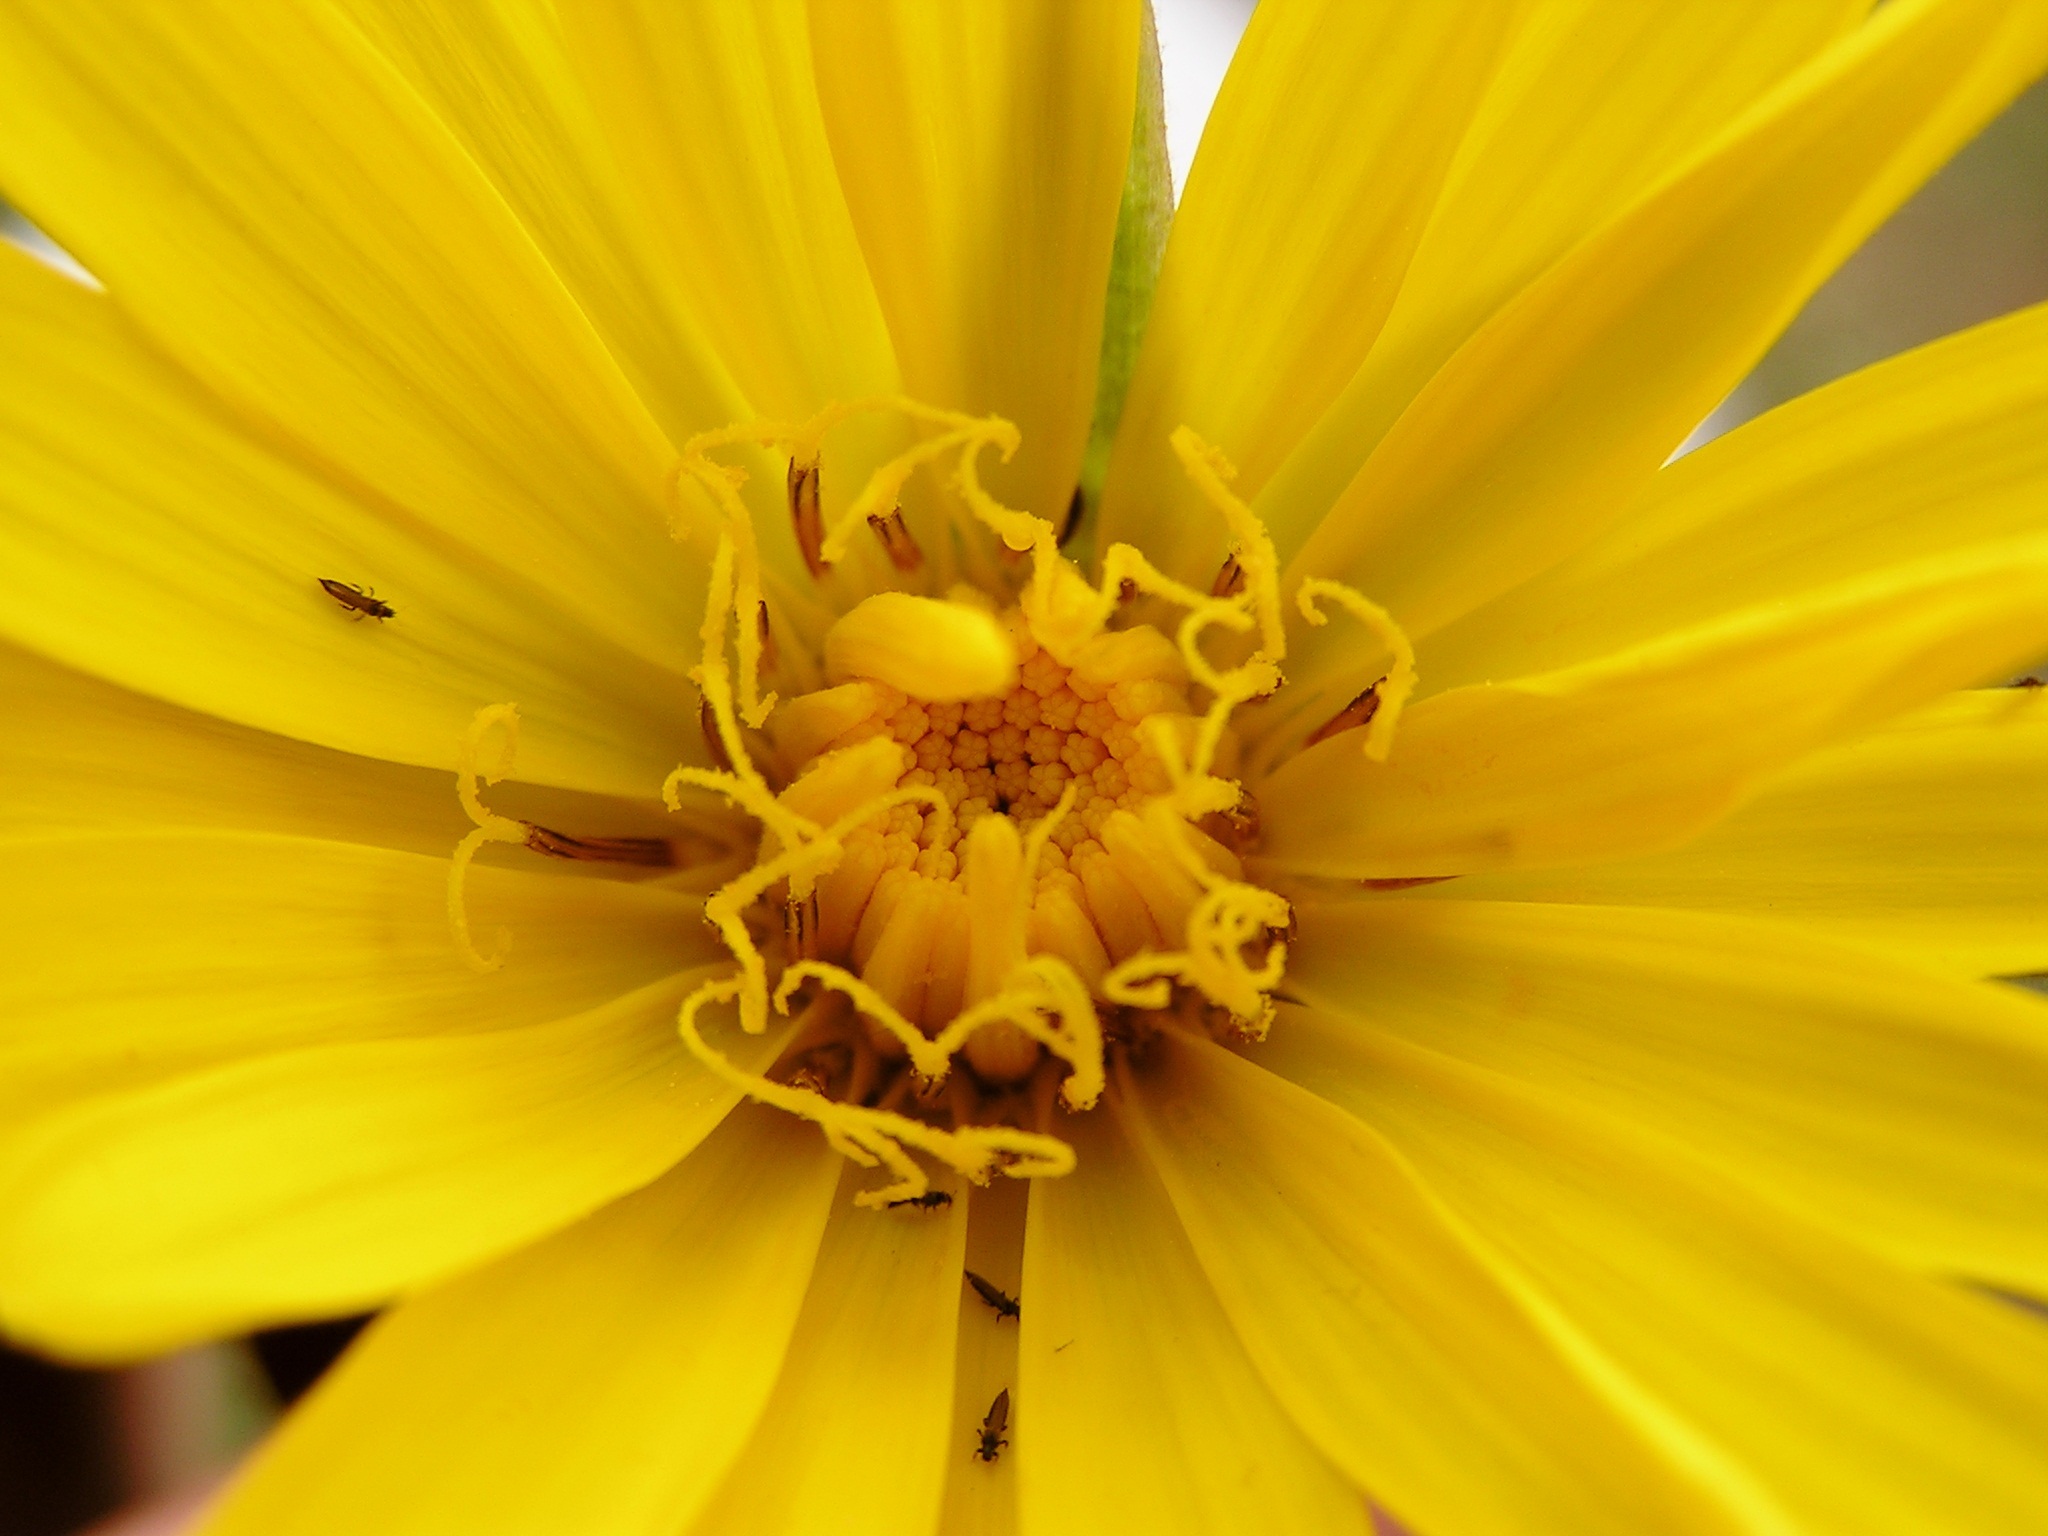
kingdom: Plantae
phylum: Tracheophyta
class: Magnoliopsida
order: Asterales
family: Asteraceae
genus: Tragopogon
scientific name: Tragopogon orientalis
